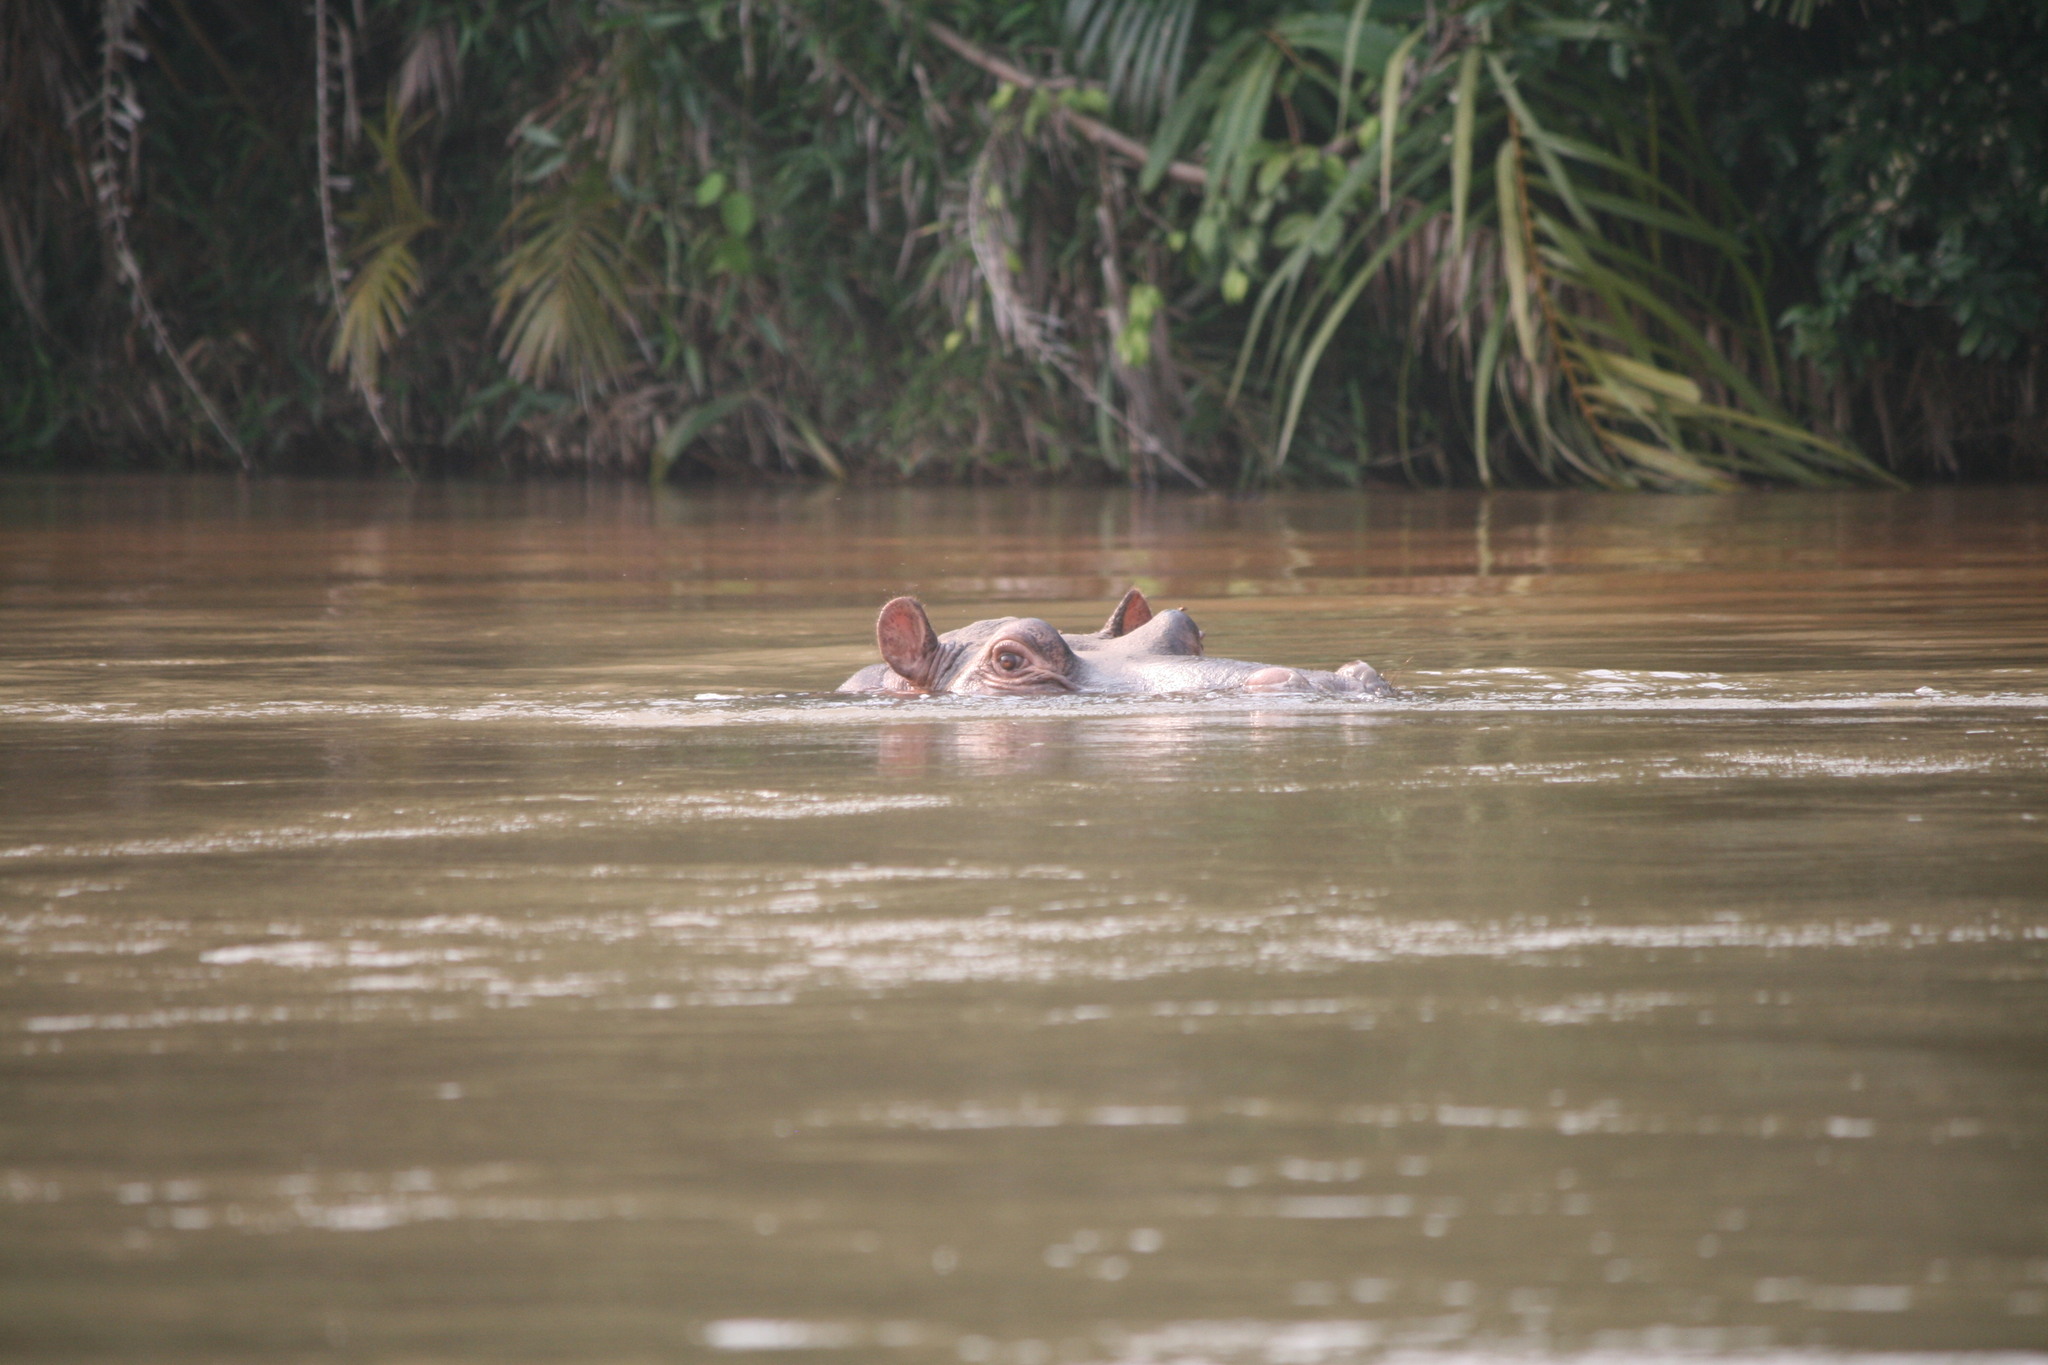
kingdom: Animalia
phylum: Chordata
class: Mammalia
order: Artiodactyla
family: Hippopotamidae
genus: Hippopotamus
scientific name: Hippopotamus amphibius
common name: Common hippopotamus
